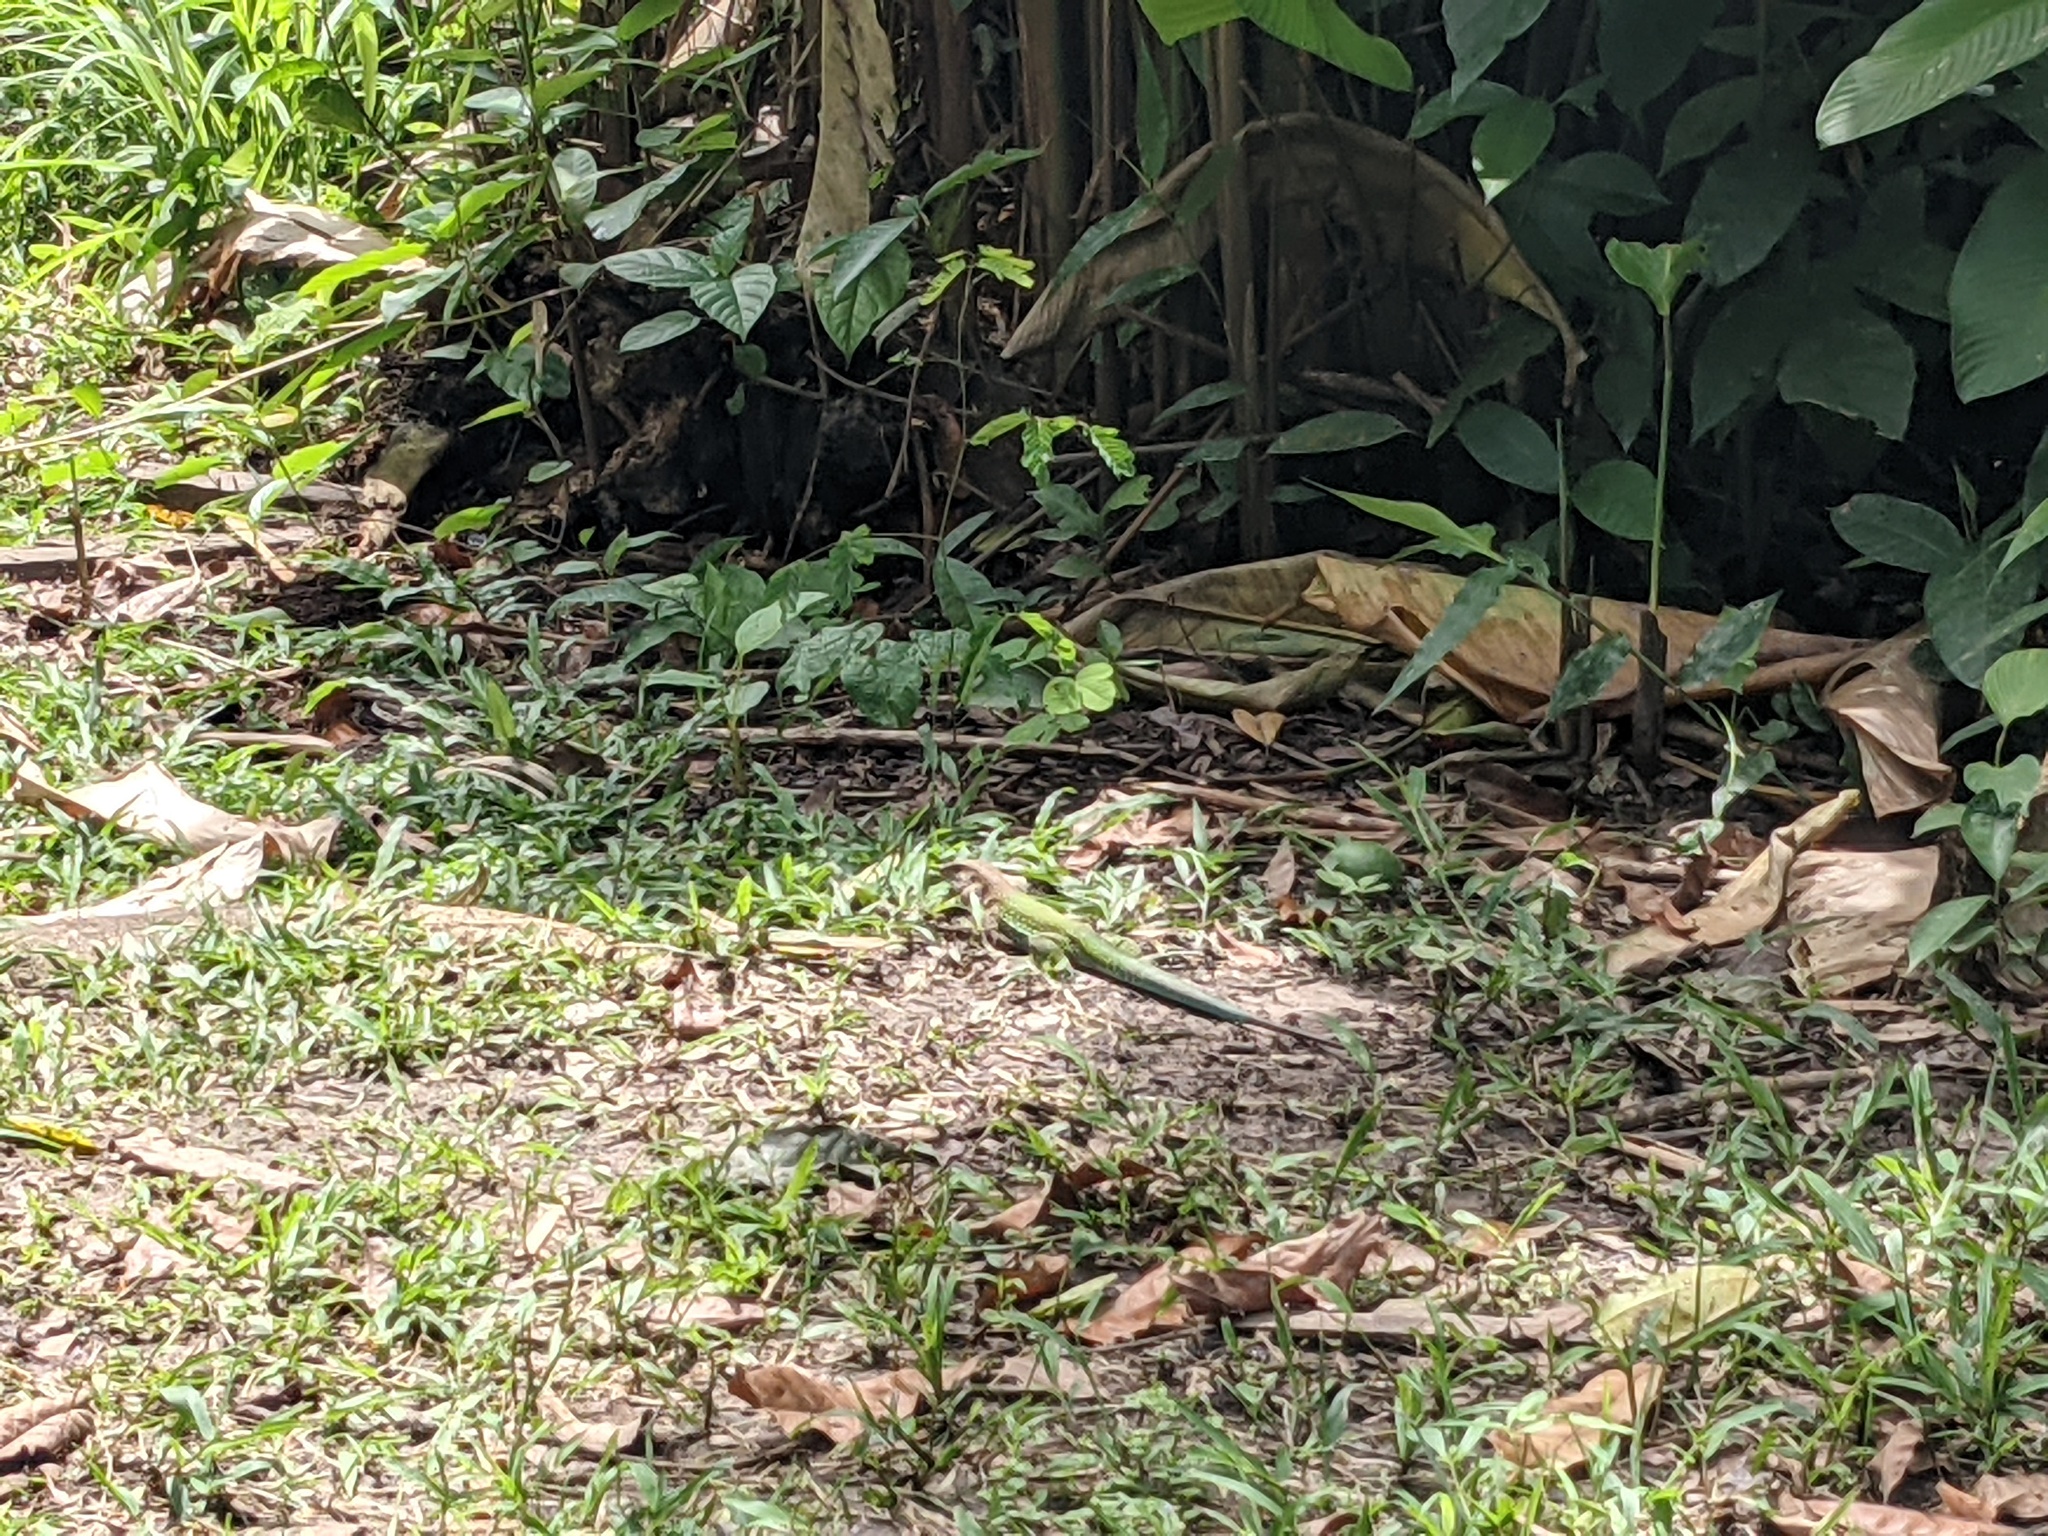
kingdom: Animalia
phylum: Chordata
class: Squamata
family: Teiidae
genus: Ameiva
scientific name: Ameiva ameiva
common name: Giant ameiva
